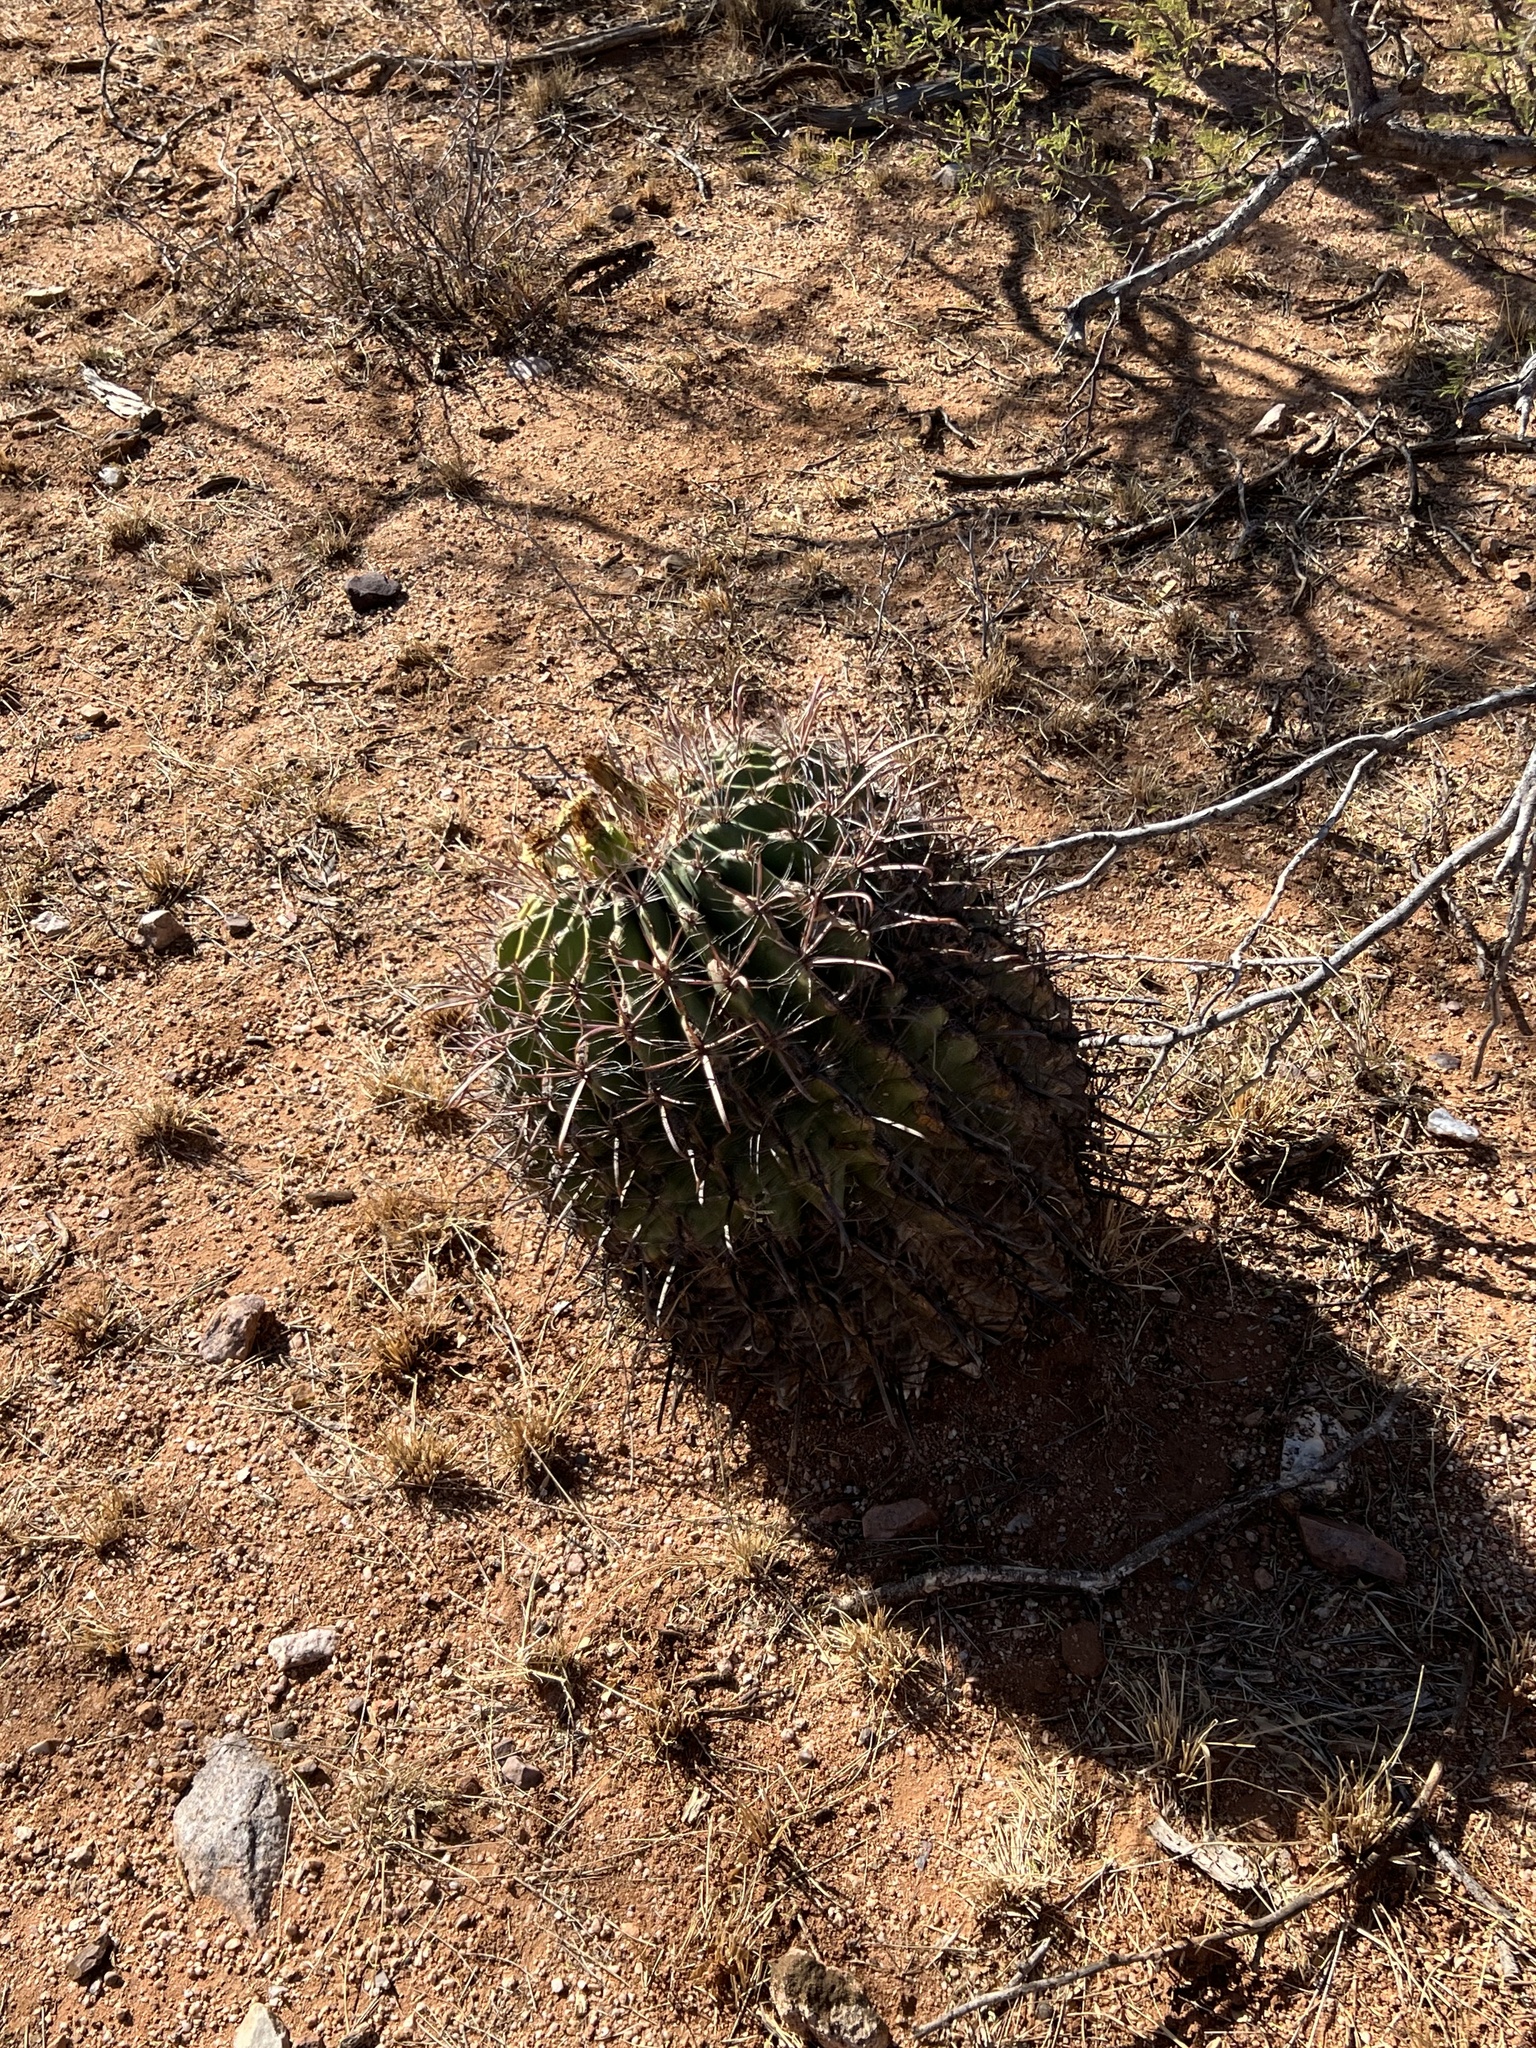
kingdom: Plantae
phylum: Tracheophyta
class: Magnoliopsida
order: Caryophyllales
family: Cactaceae
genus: Ferocactus
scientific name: Ferocactus wislizeni
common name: Candy barrel cactus
